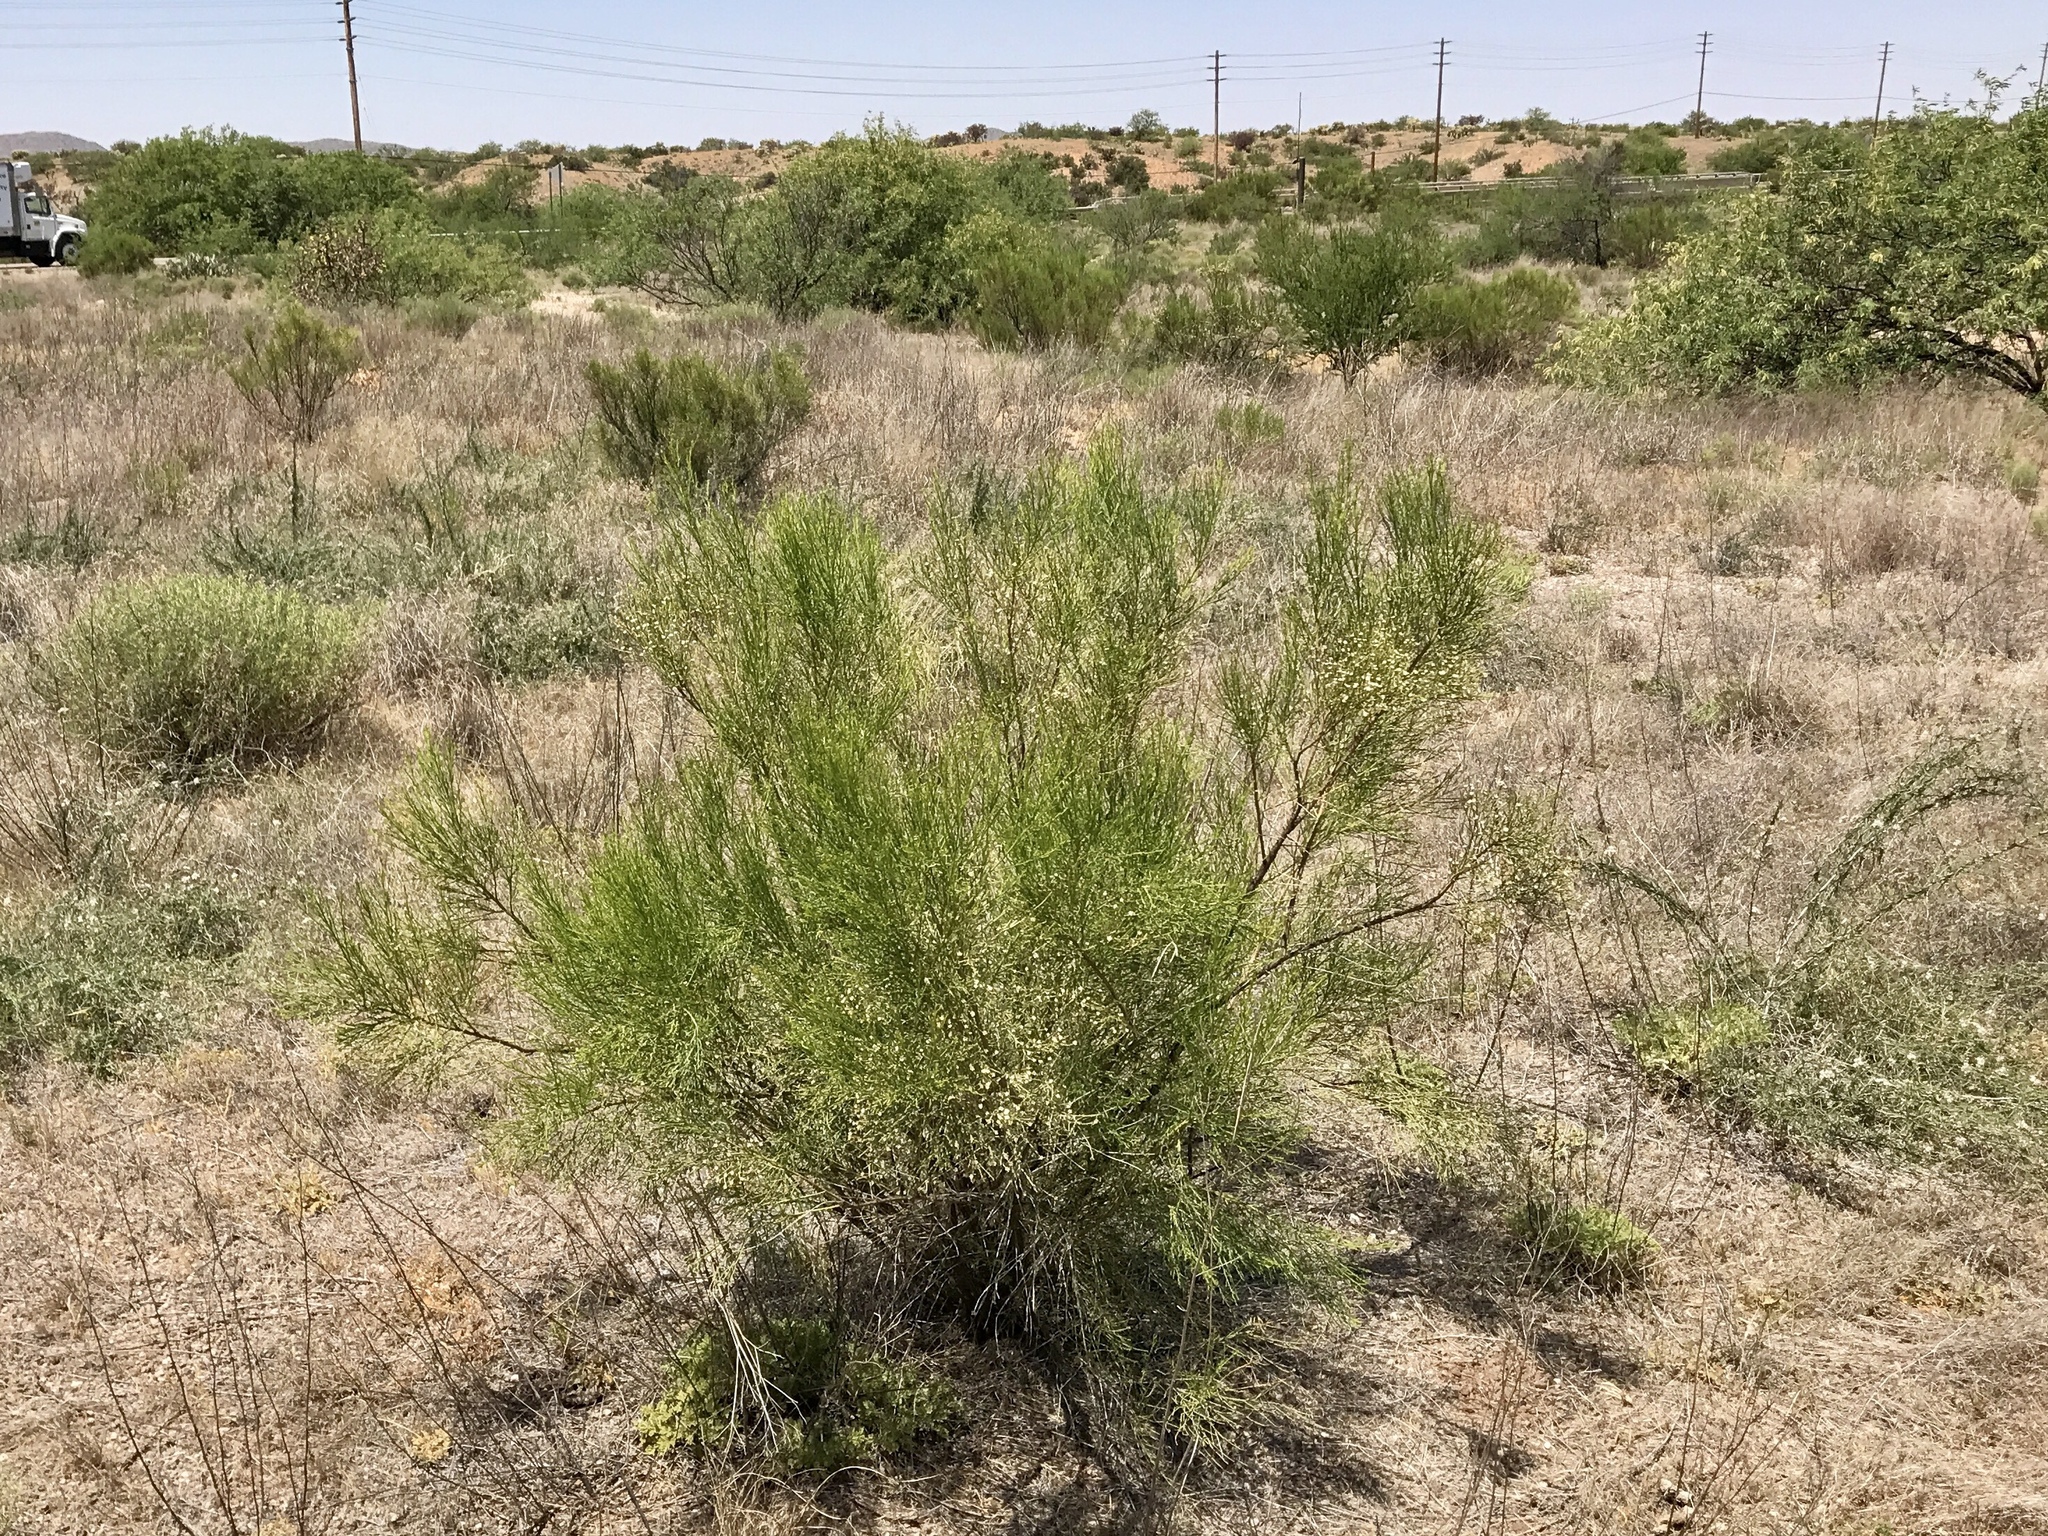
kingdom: Plantae
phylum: Tracheophyta
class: Magnoliopsida
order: Asterales
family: Asteraceae
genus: Baccharis
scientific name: Baccharis sarothroides
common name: Desert-broom
